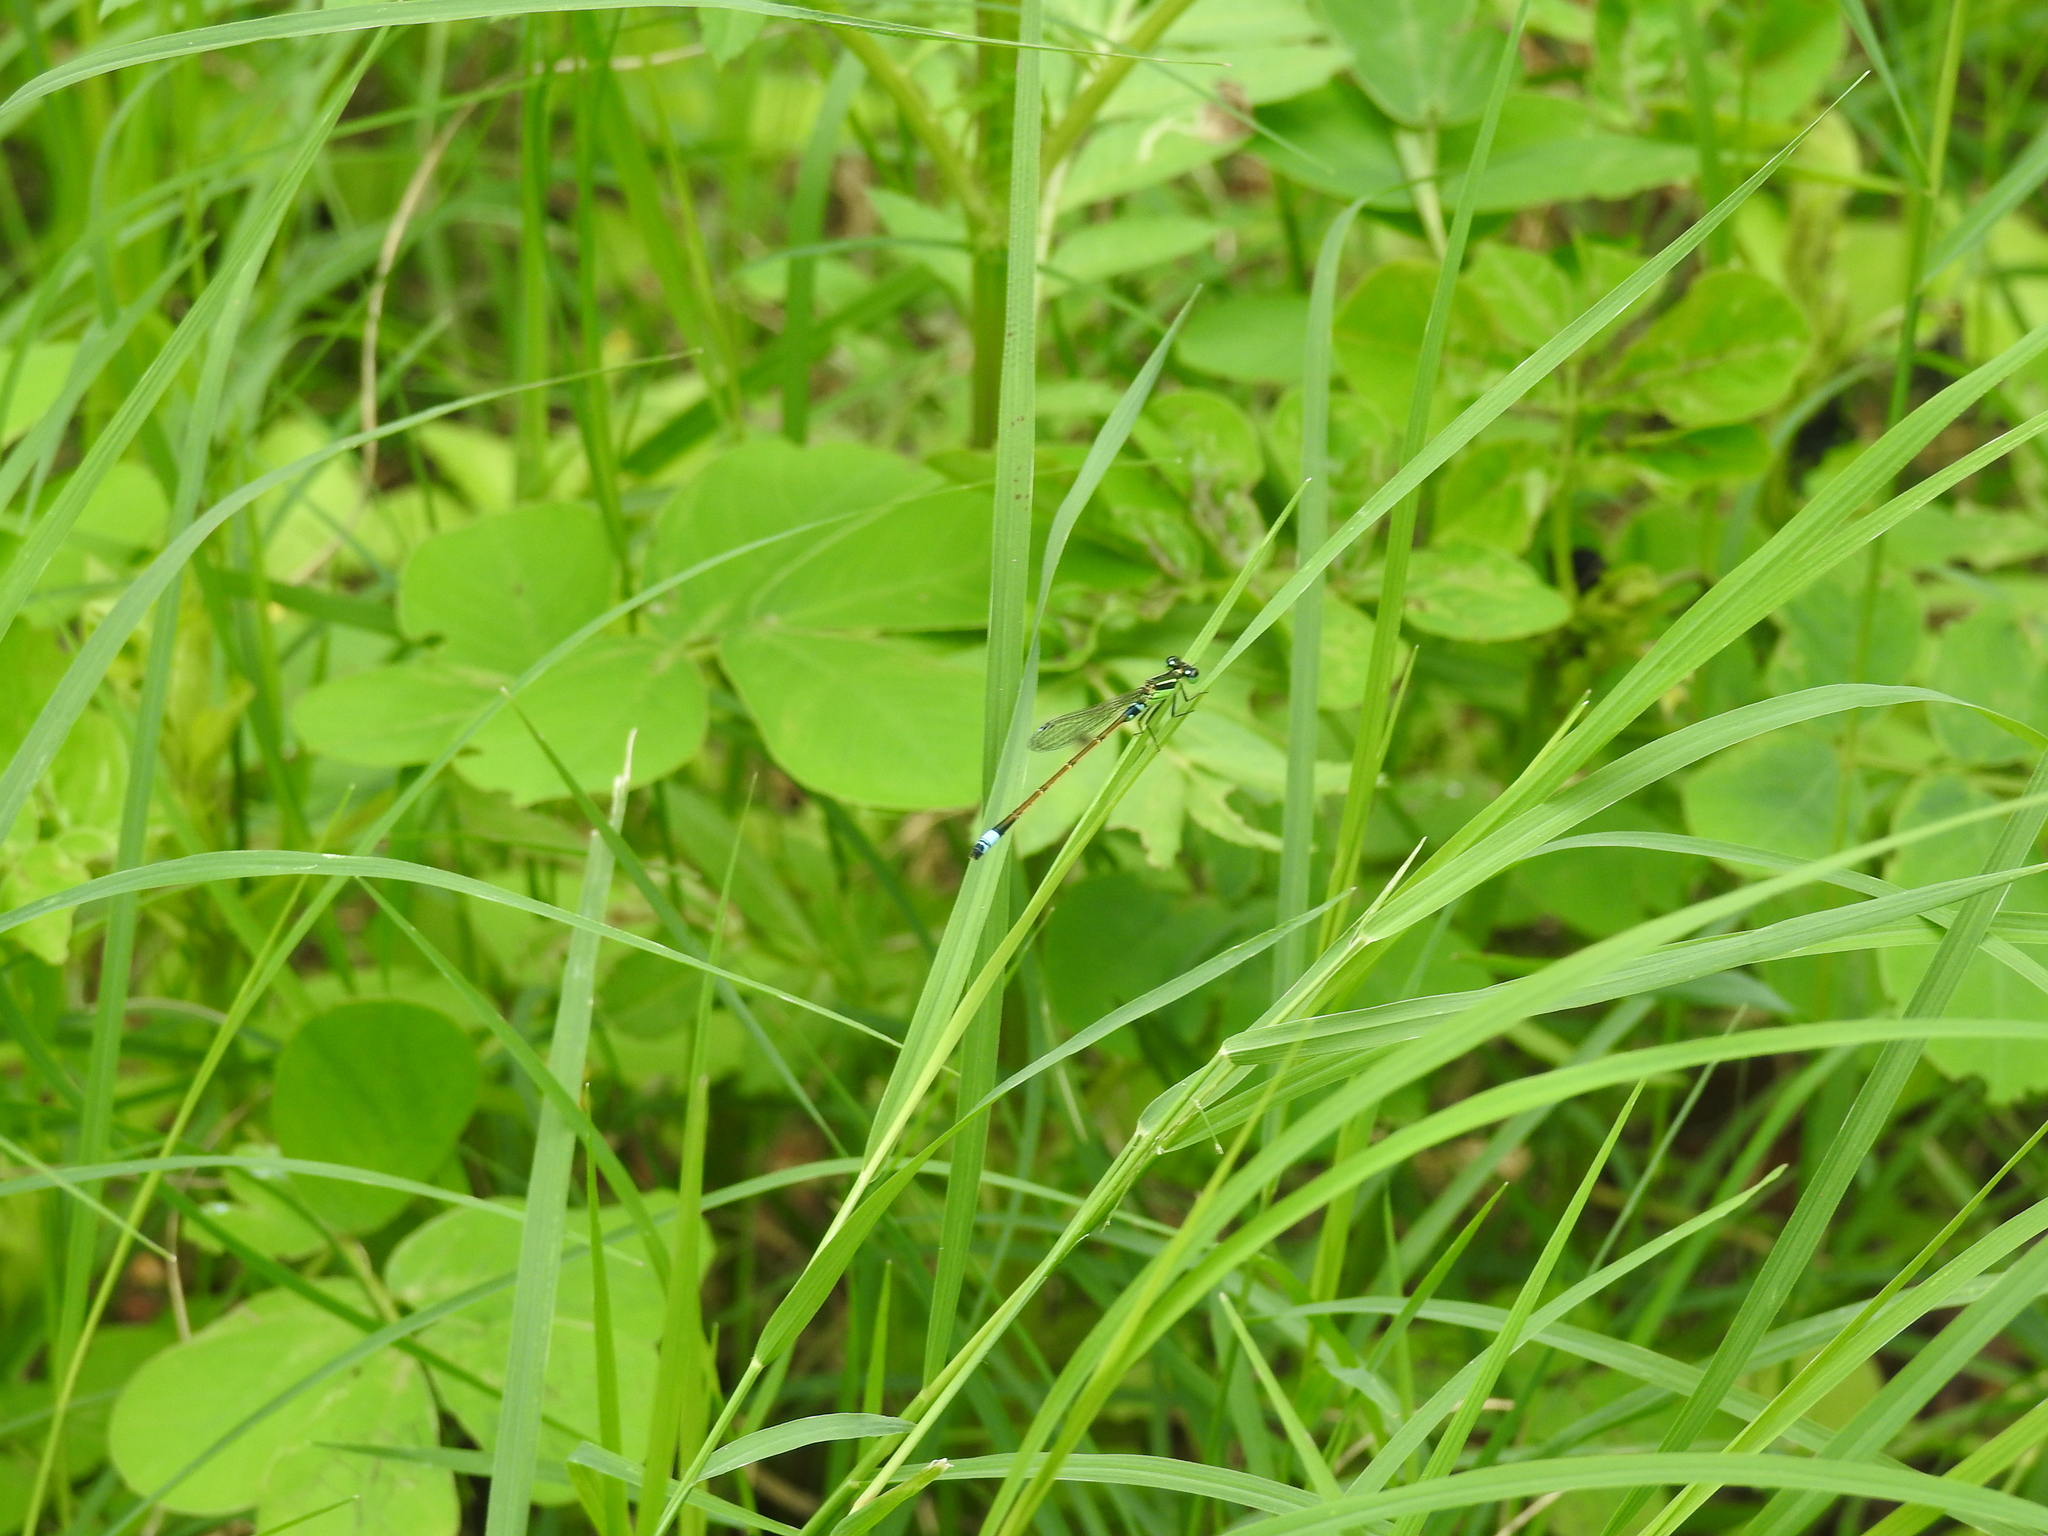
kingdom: Animalia
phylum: Arthropoda
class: Insecta
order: Odonata
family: Coenagrionidae
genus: Ischnura
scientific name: Ischnura senegalensis
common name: Tropical bluetail
